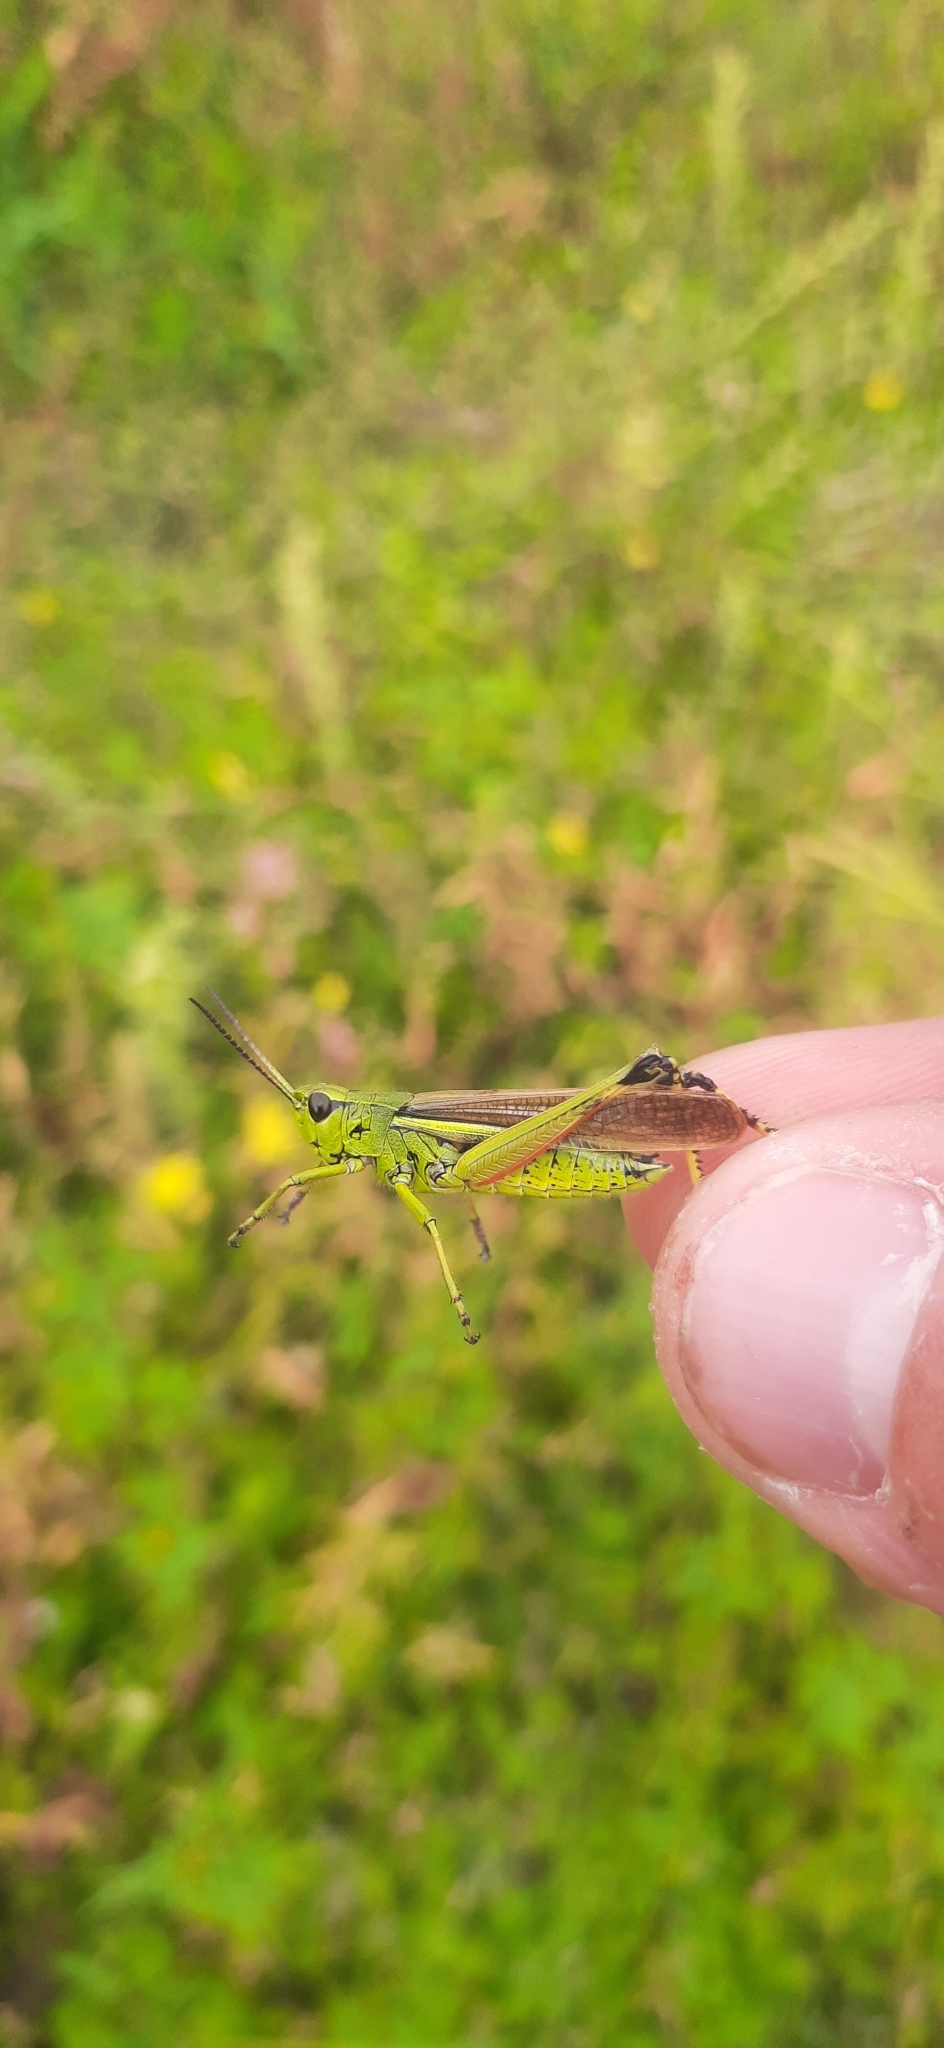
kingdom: Animalia
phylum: Arthropoda
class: Insecta
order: Orthoptera
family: Acrididae
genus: Stethophyma
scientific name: Stethophyma grossum
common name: Large marsh grasshopper
